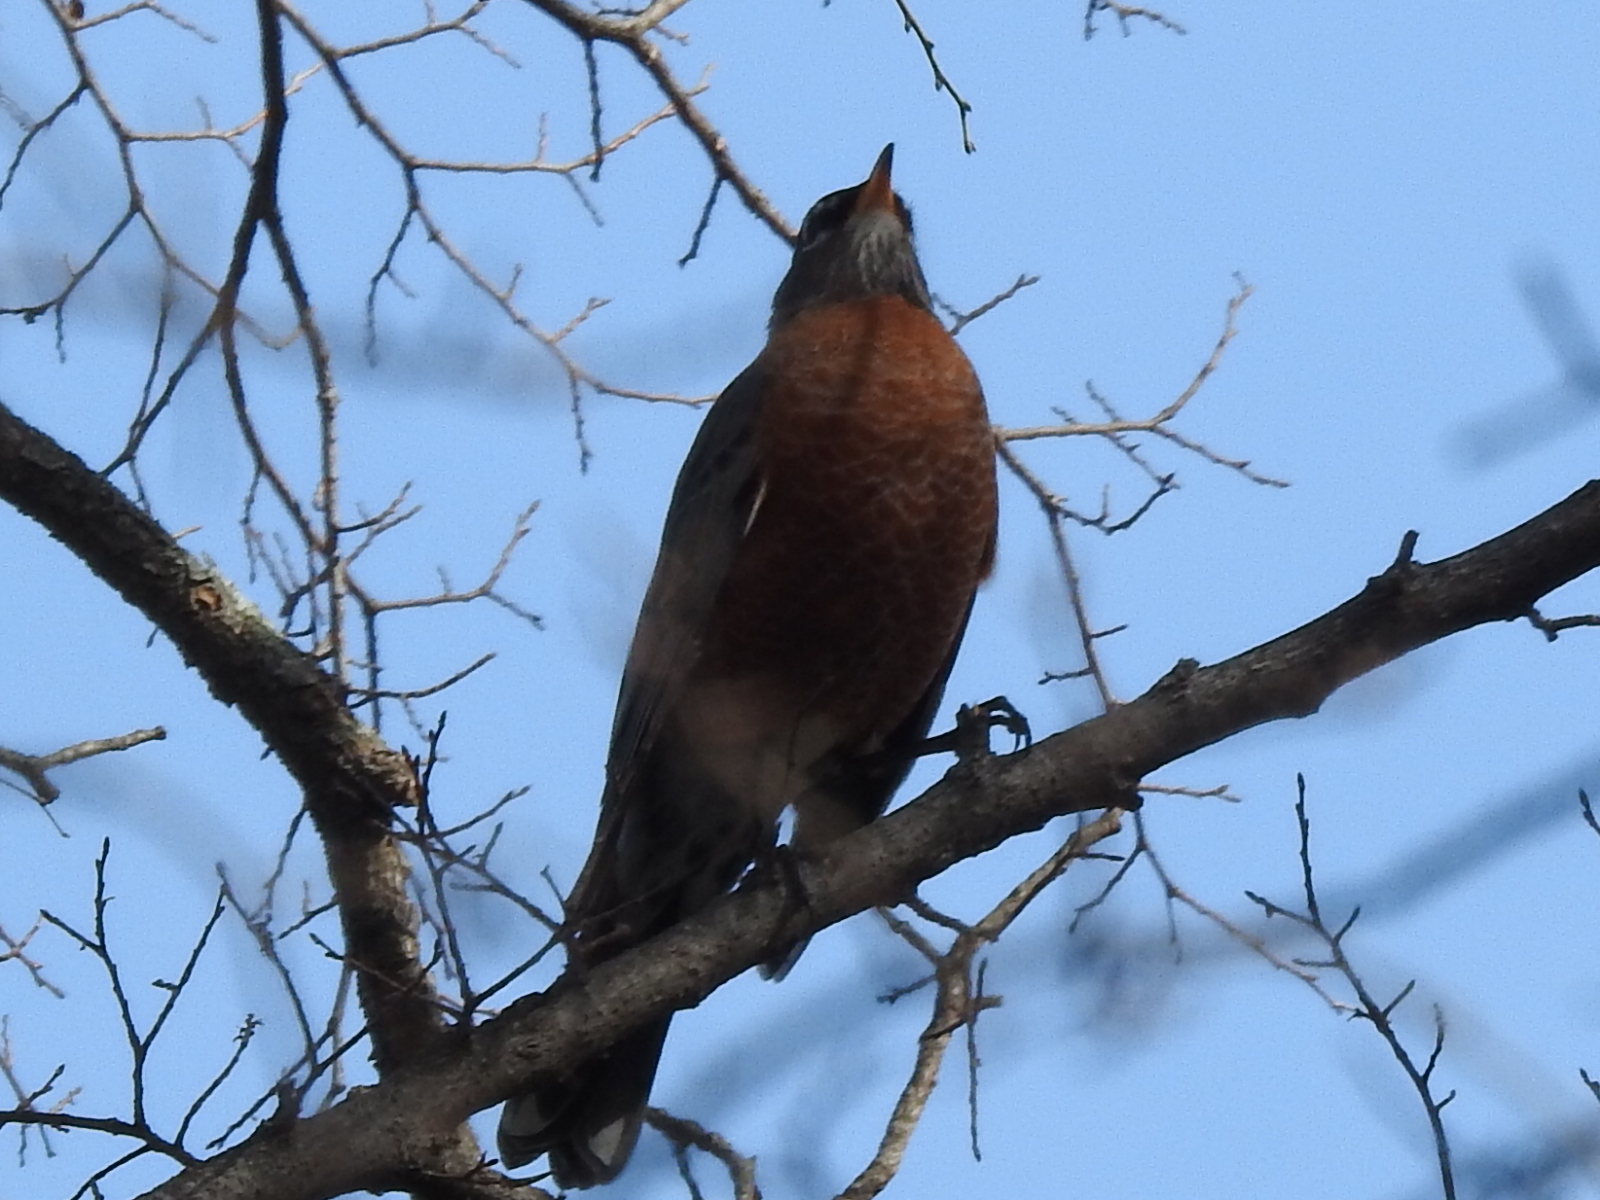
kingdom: Animalia
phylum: Chordata
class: Aves
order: Passeriformes
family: Turdidae
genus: Turdus
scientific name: Turdus migratorius
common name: American robin
